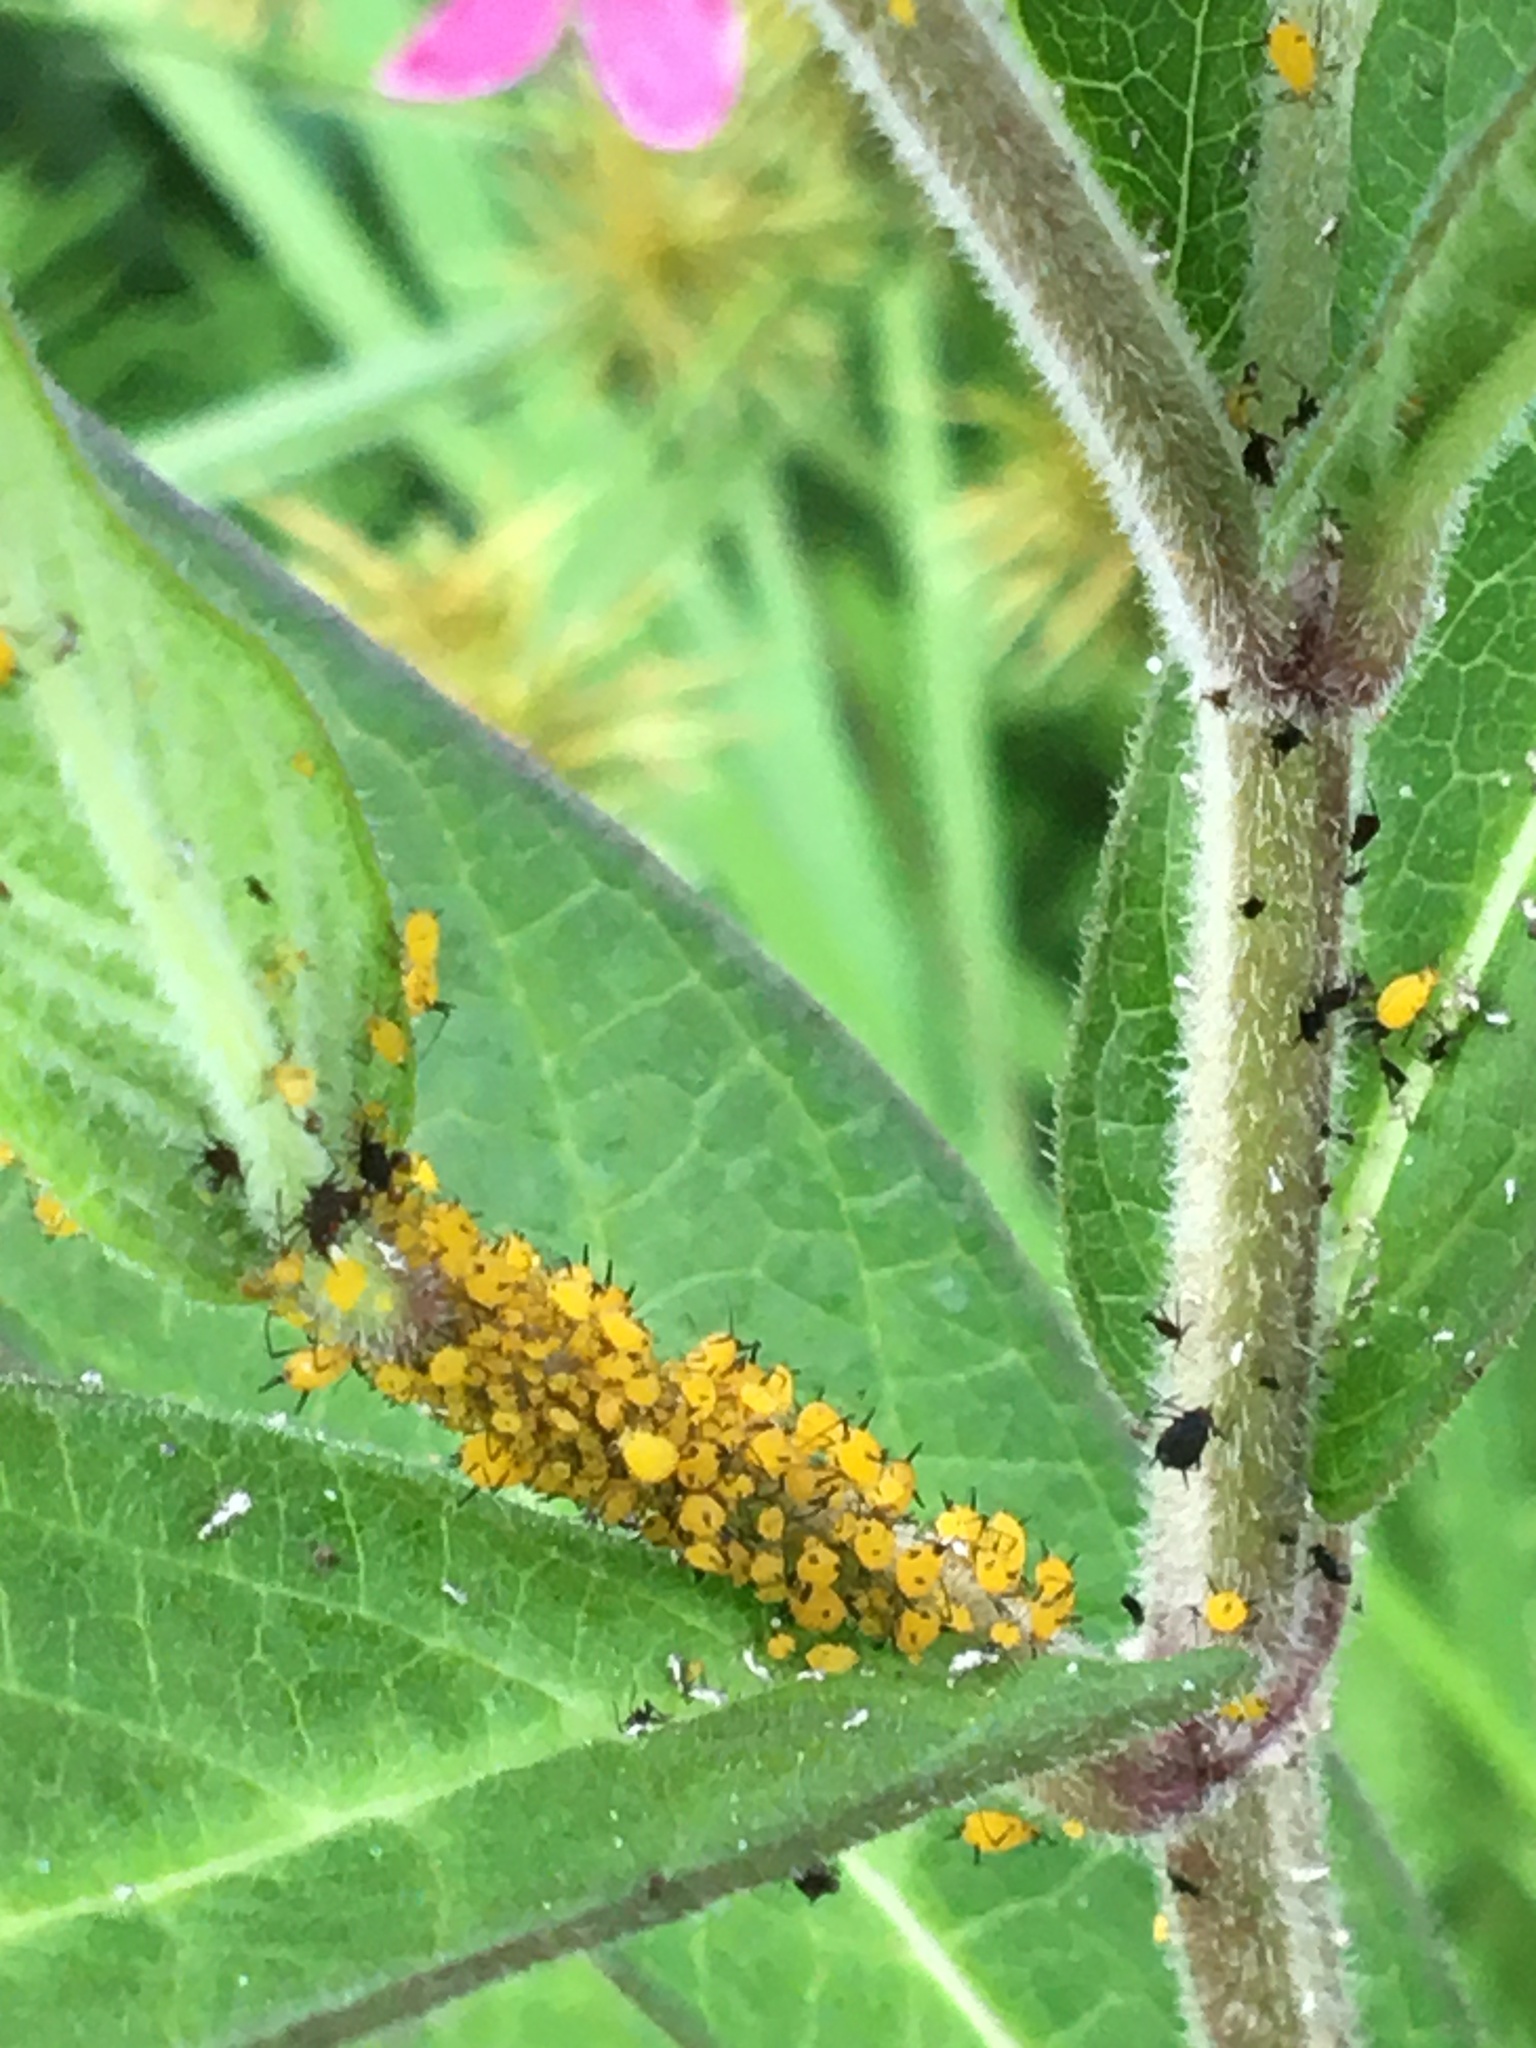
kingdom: Animalia
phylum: Arthropoda
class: Insecta
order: Hemiptera
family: Aphididae
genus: Aphis
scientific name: Aphis nerii
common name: Oleander aphid
